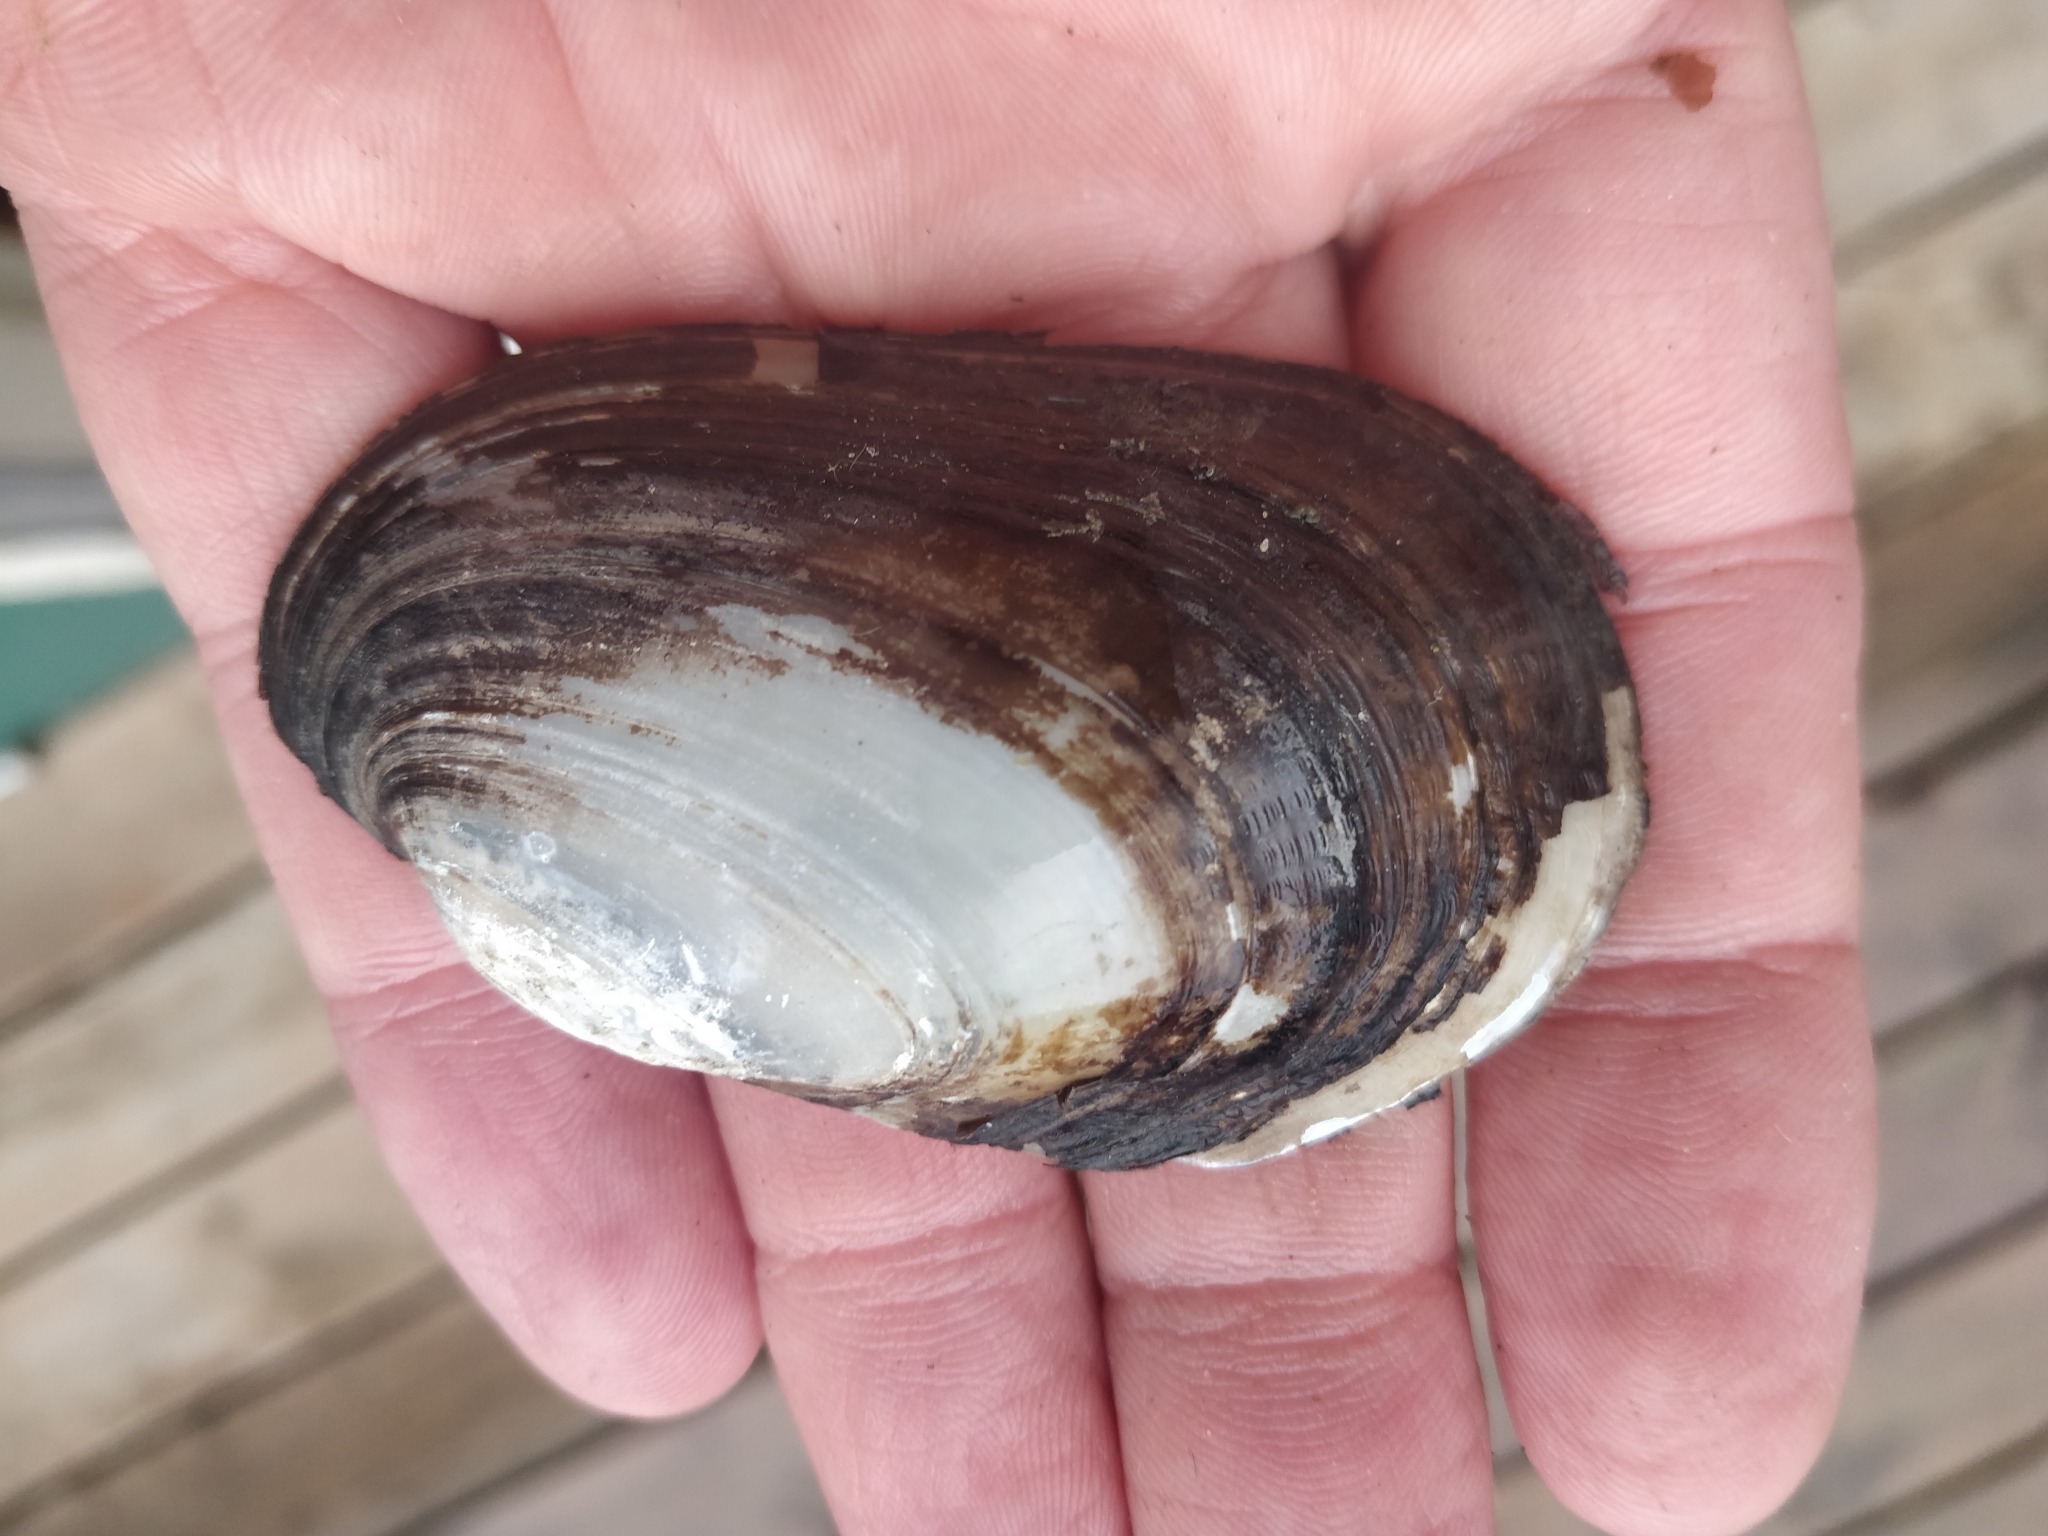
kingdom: Animalia
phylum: Mollusca
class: Bivalvia
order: Unionida
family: Unionidae
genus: Lampsilis
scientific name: Lampsilis siliquoidea
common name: Fatmucket
